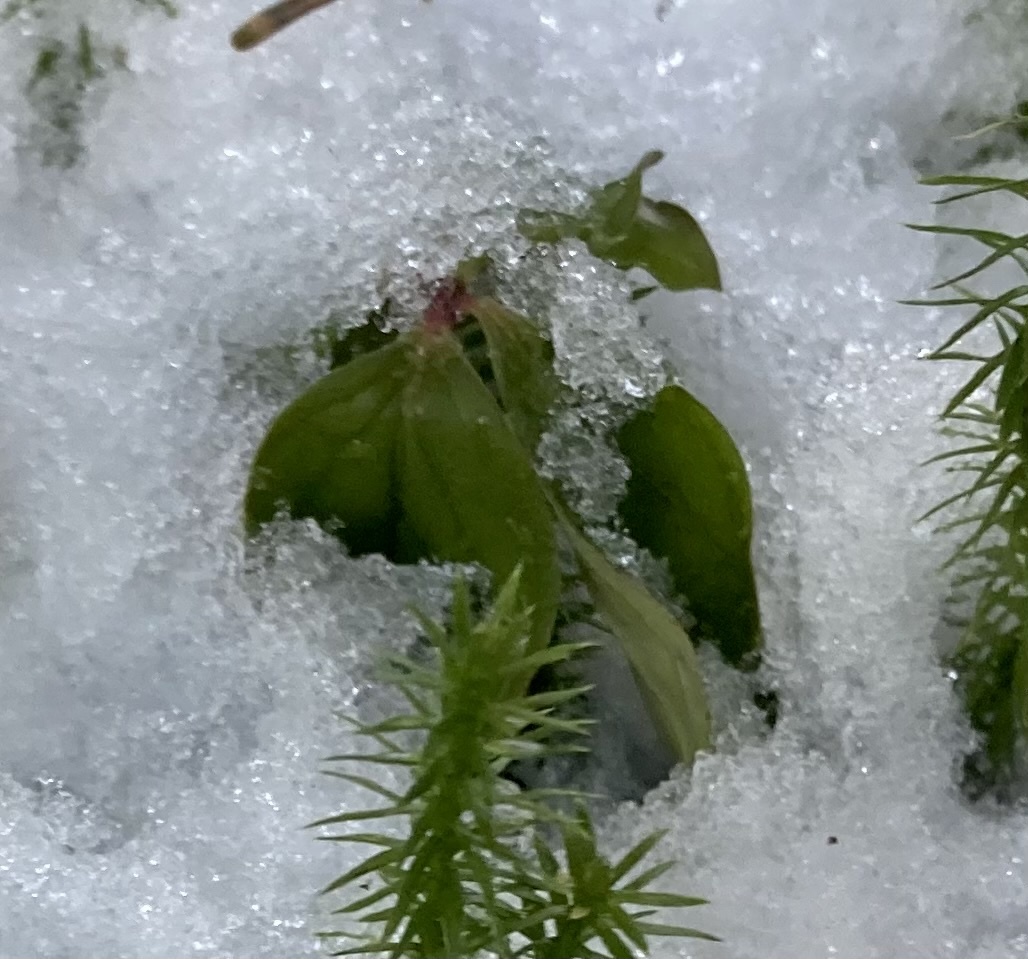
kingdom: Plantae
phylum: Tracheophyta
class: Magnoliopsida
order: Cornales
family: Cornaceae
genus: Cornus
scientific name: Cornus canadensis
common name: Creeping dogwood
